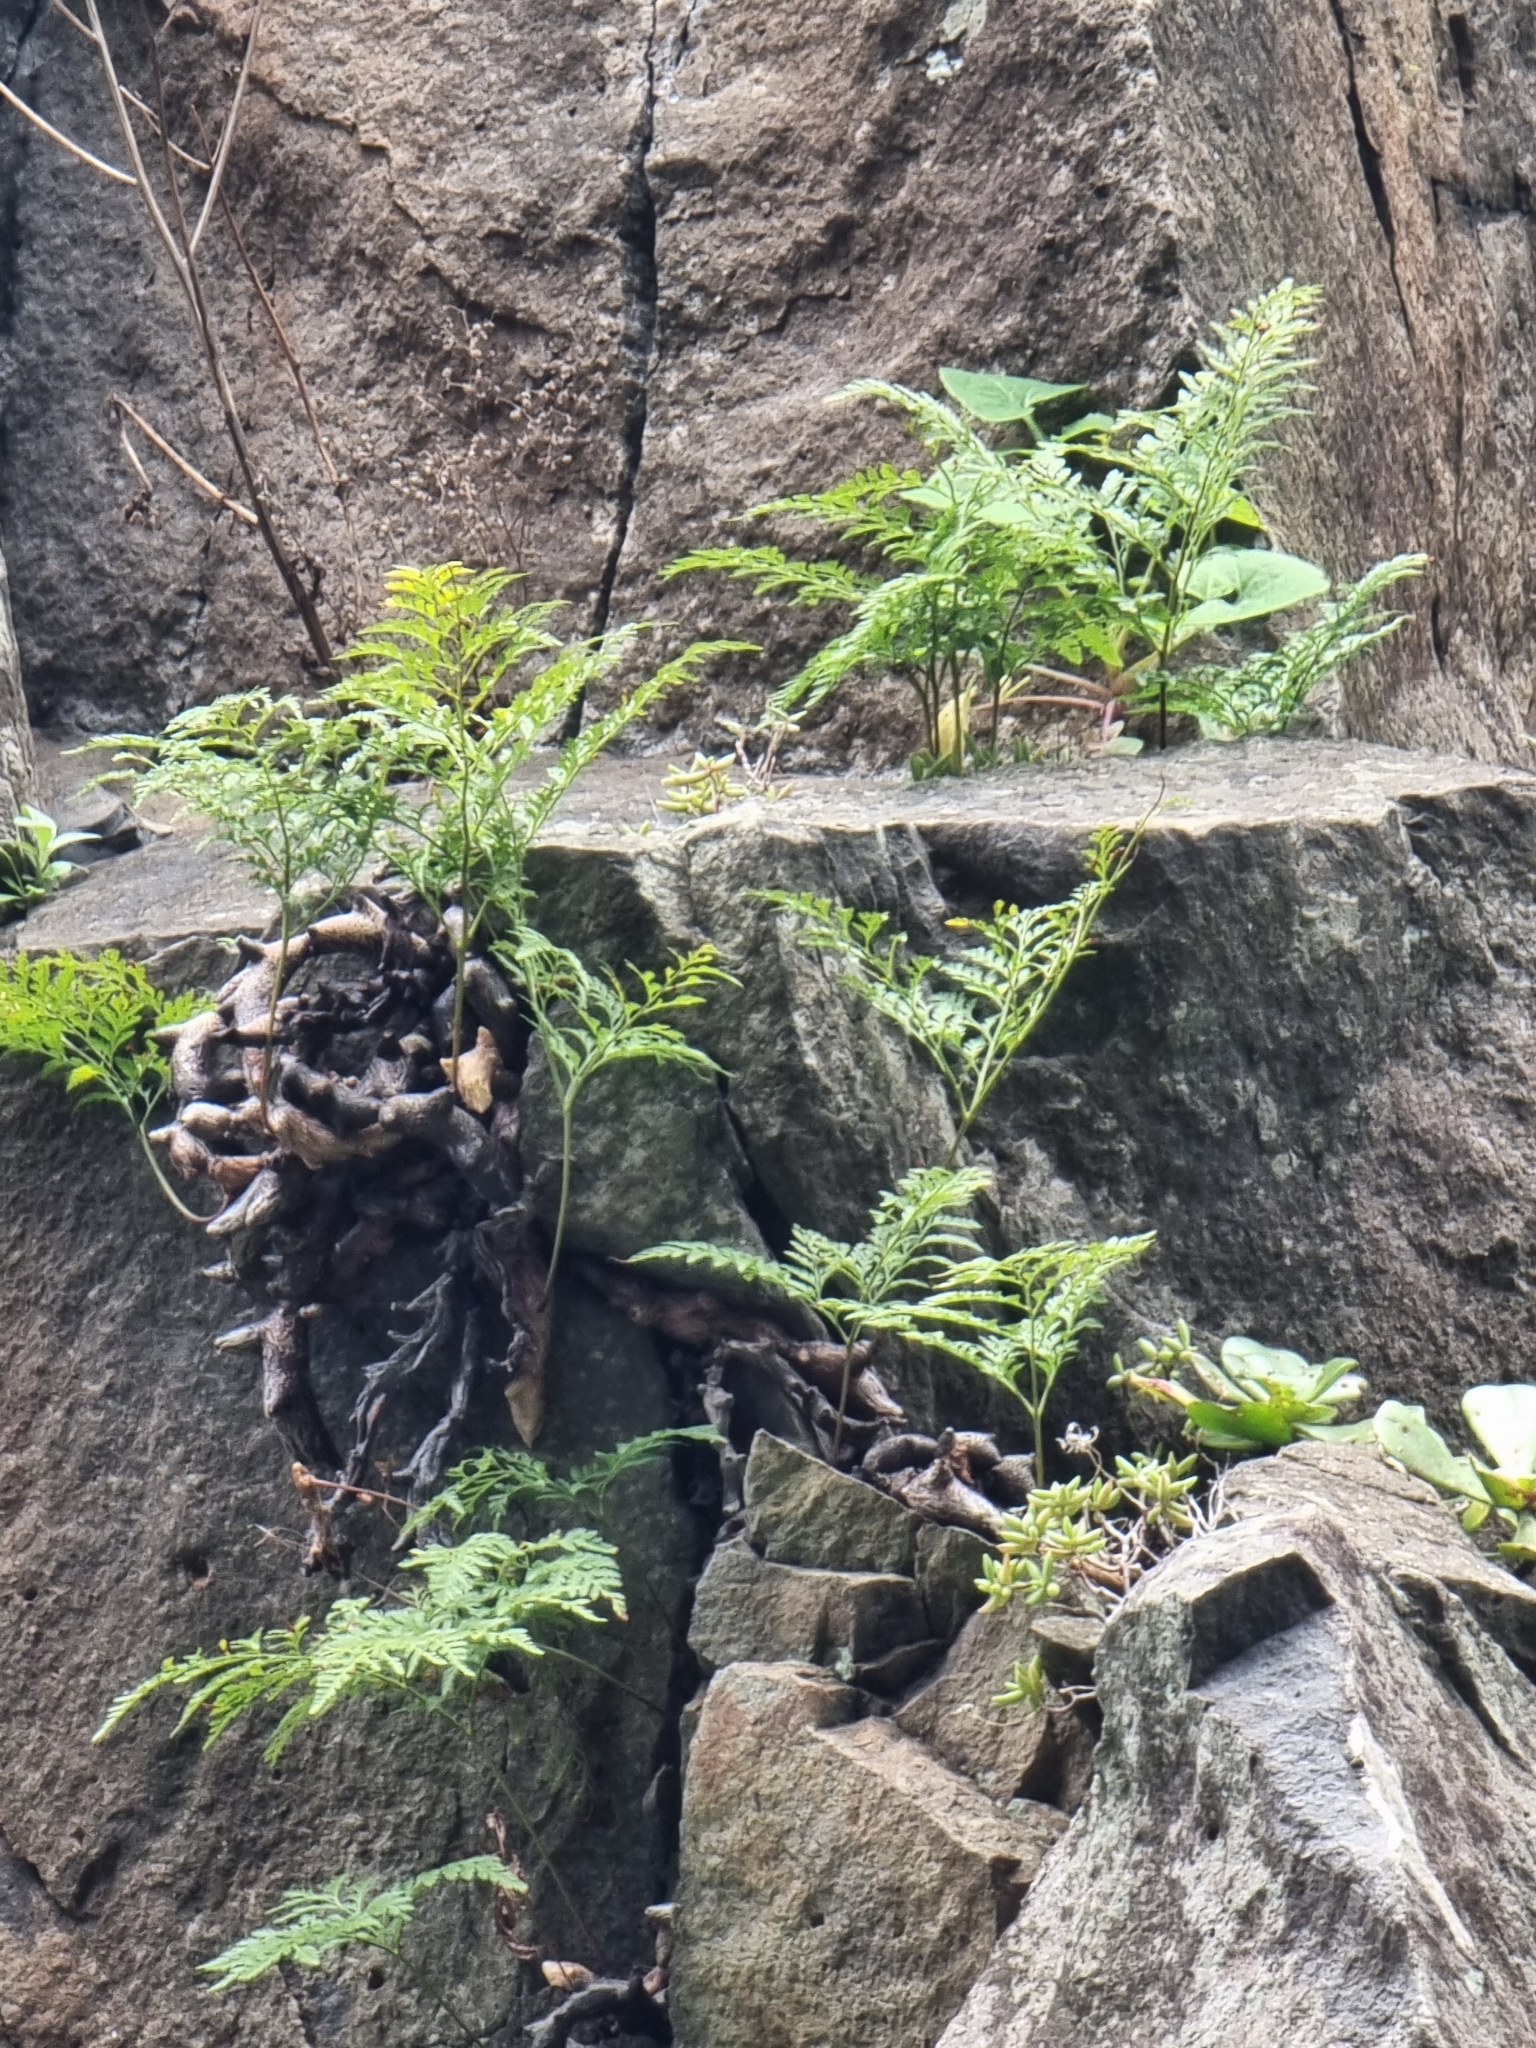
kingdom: Plantae
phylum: Tracheophyta
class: Polypodiopsida
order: Polypodiales
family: Davalliaceae
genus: Davallia
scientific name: Davallia canariensis
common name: Hare's-foot fern
